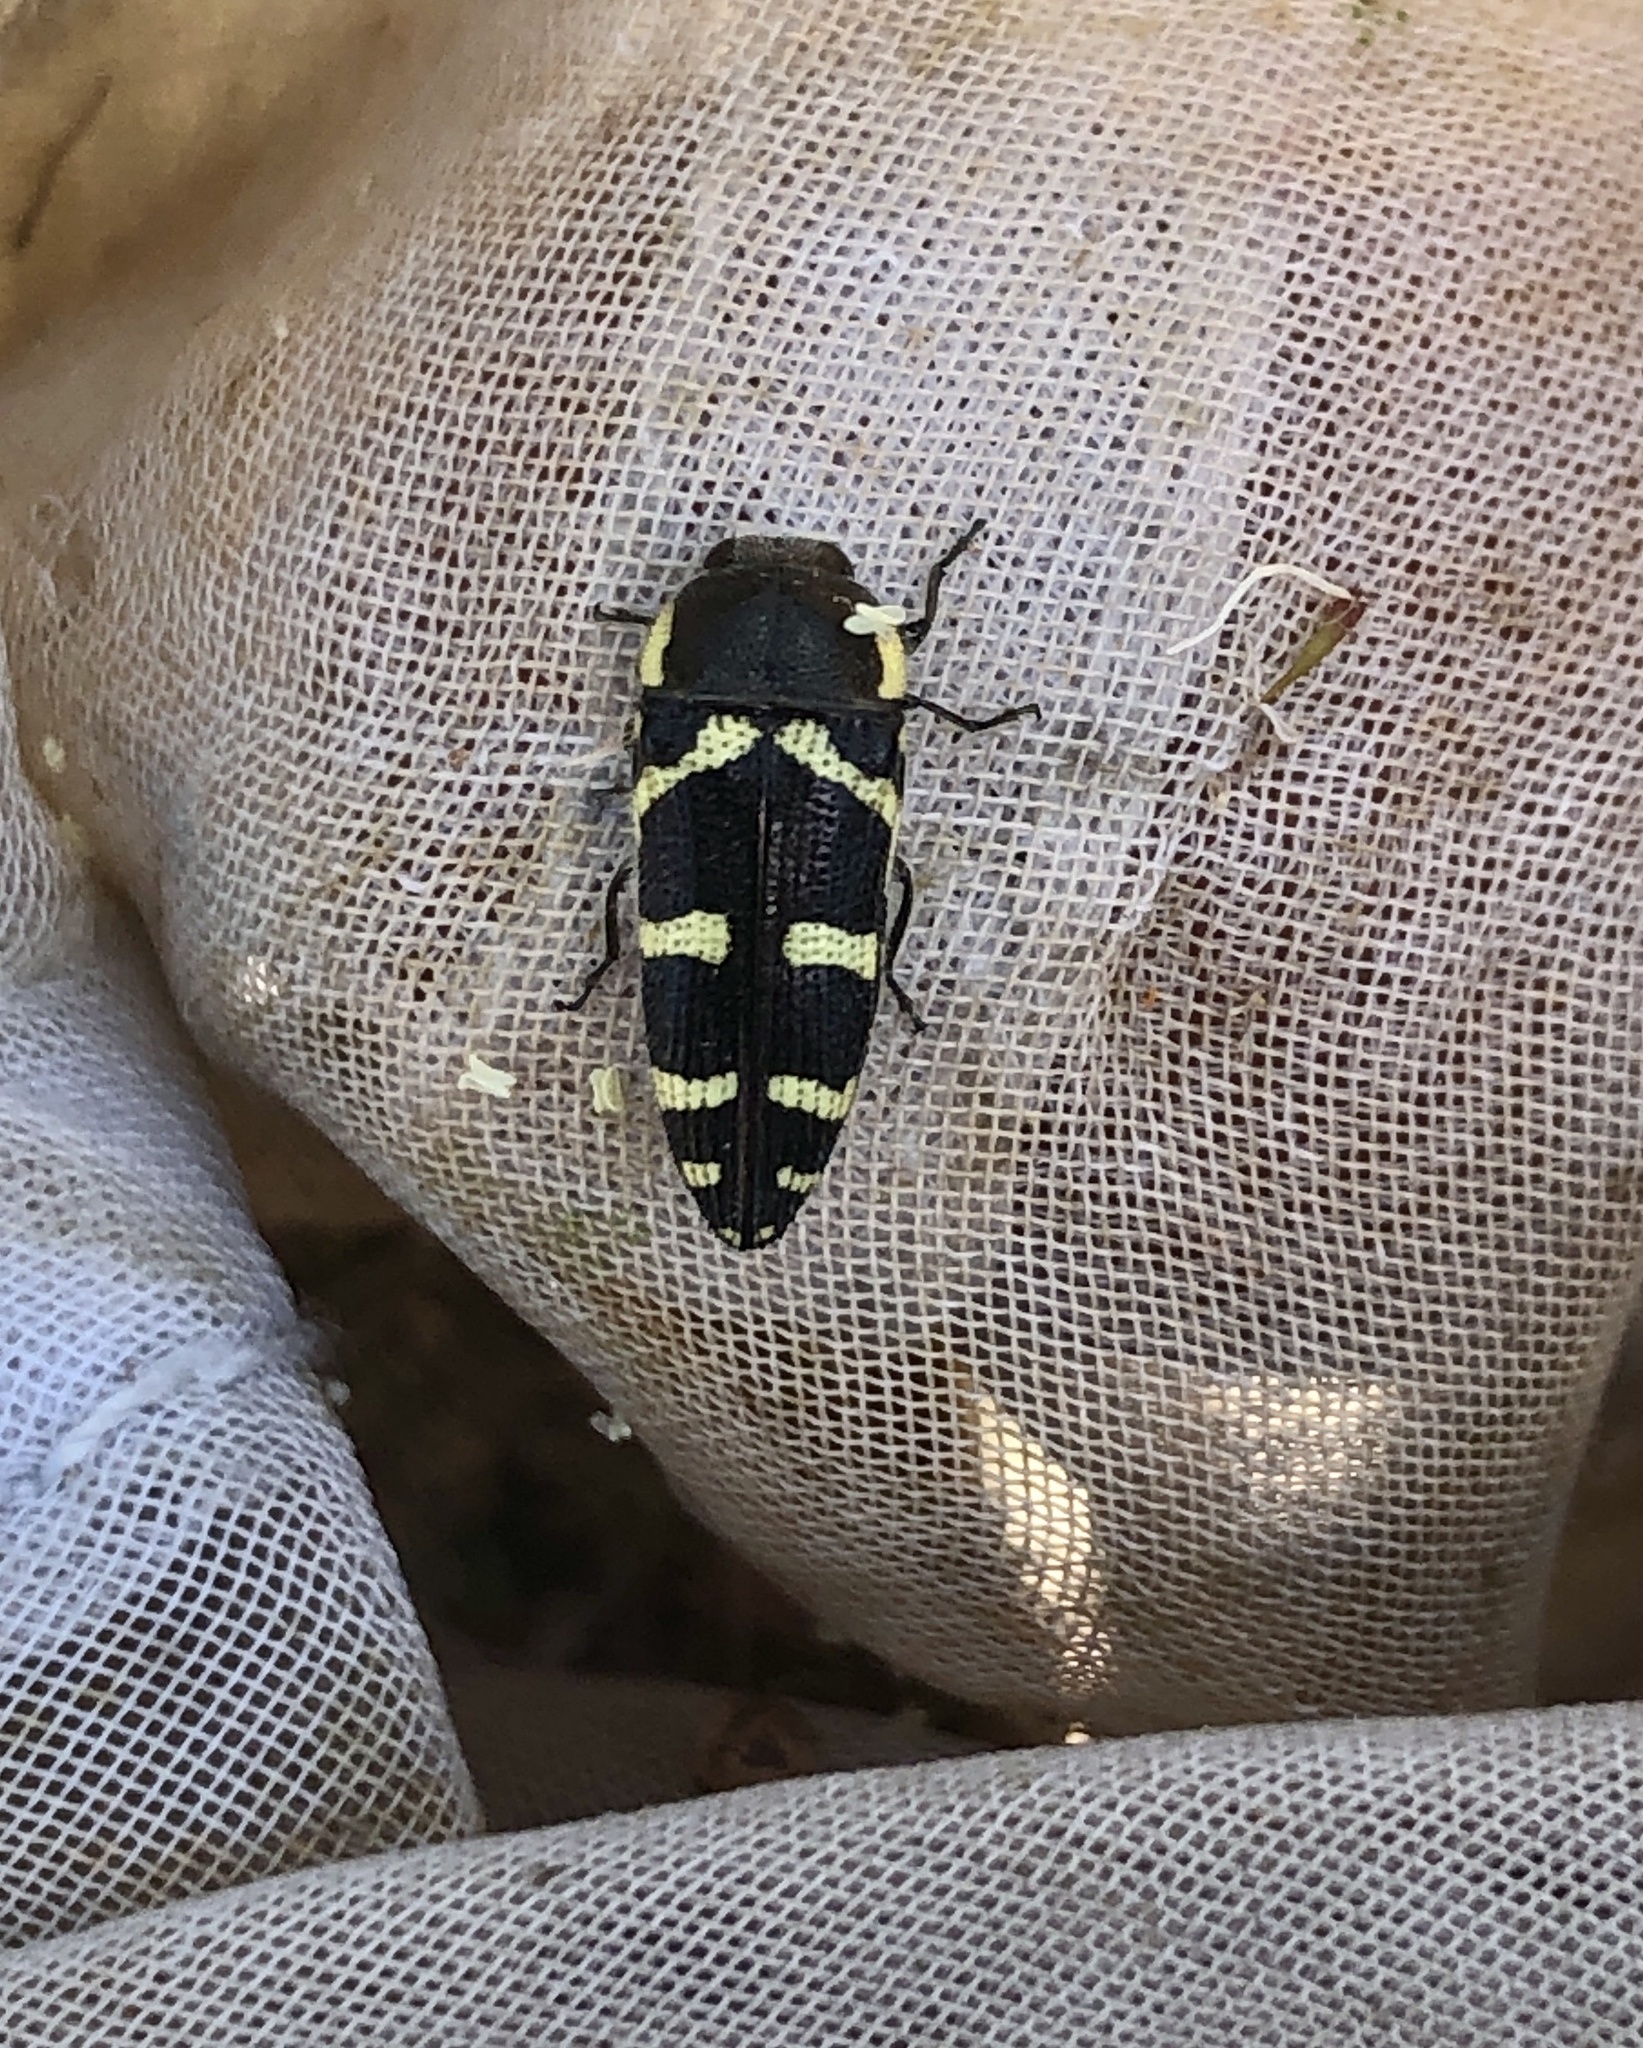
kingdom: Animalia
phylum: Arthropoda
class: Insecta
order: Coleoptera
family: Buprestidae
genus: Acmaeodera
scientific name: Acmaeodera convicta
